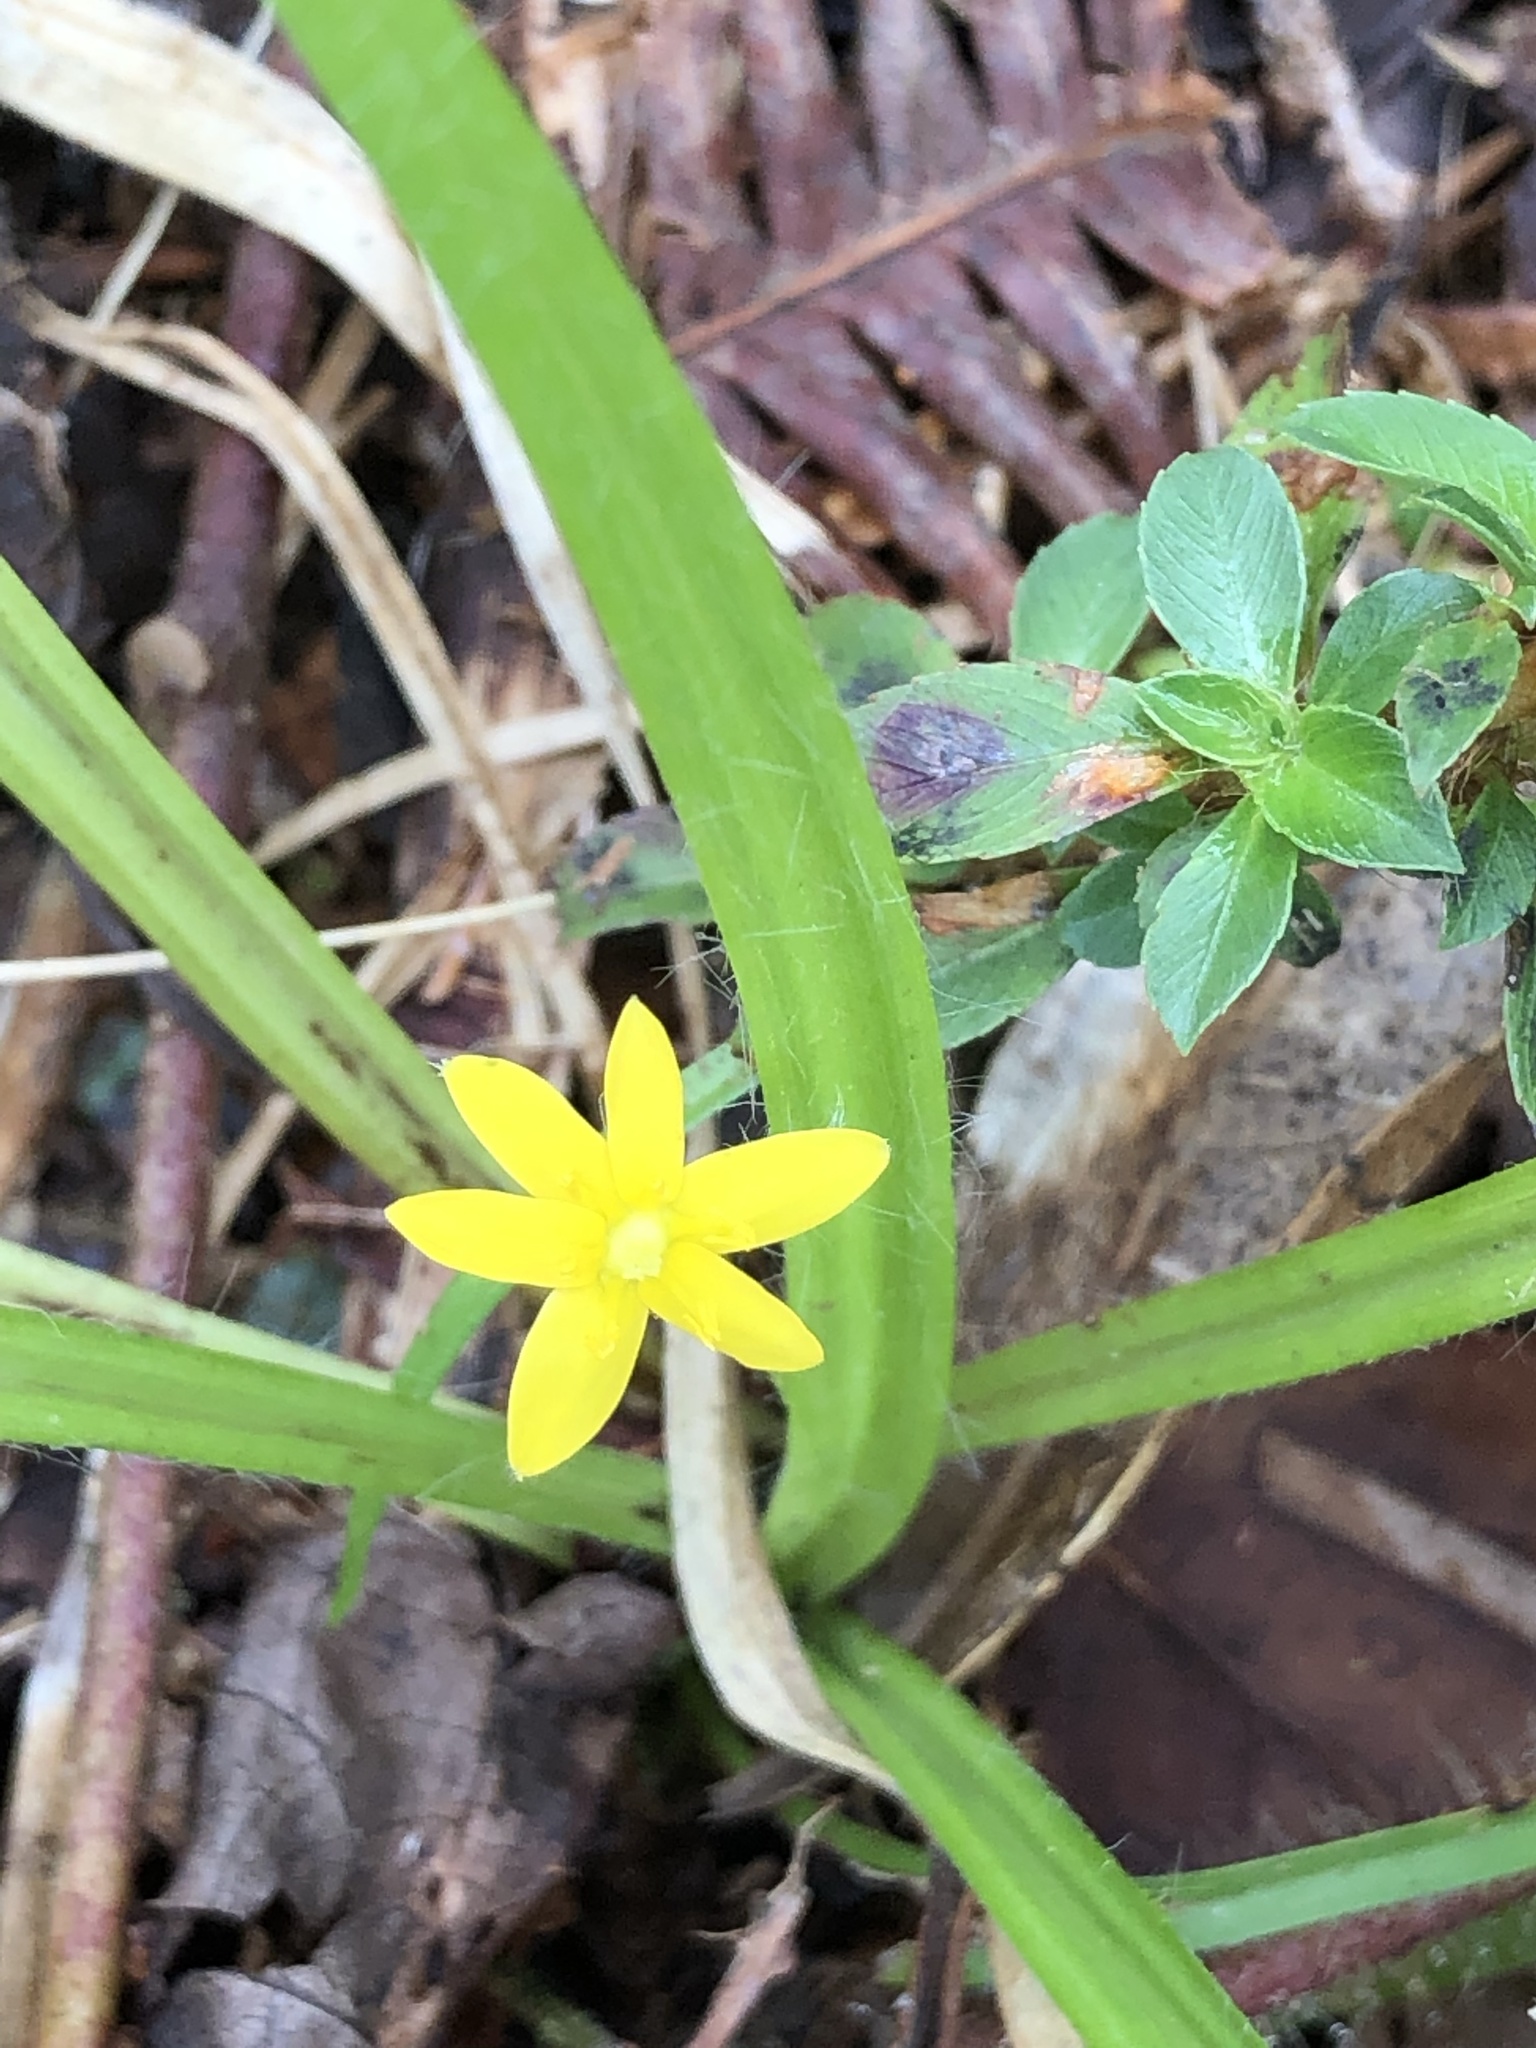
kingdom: Plantae
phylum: Tracheophyta
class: Liliopsida
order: Asparagales
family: Hypoxidaceae
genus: Hypoxis
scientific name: Hypoxis decumbens
